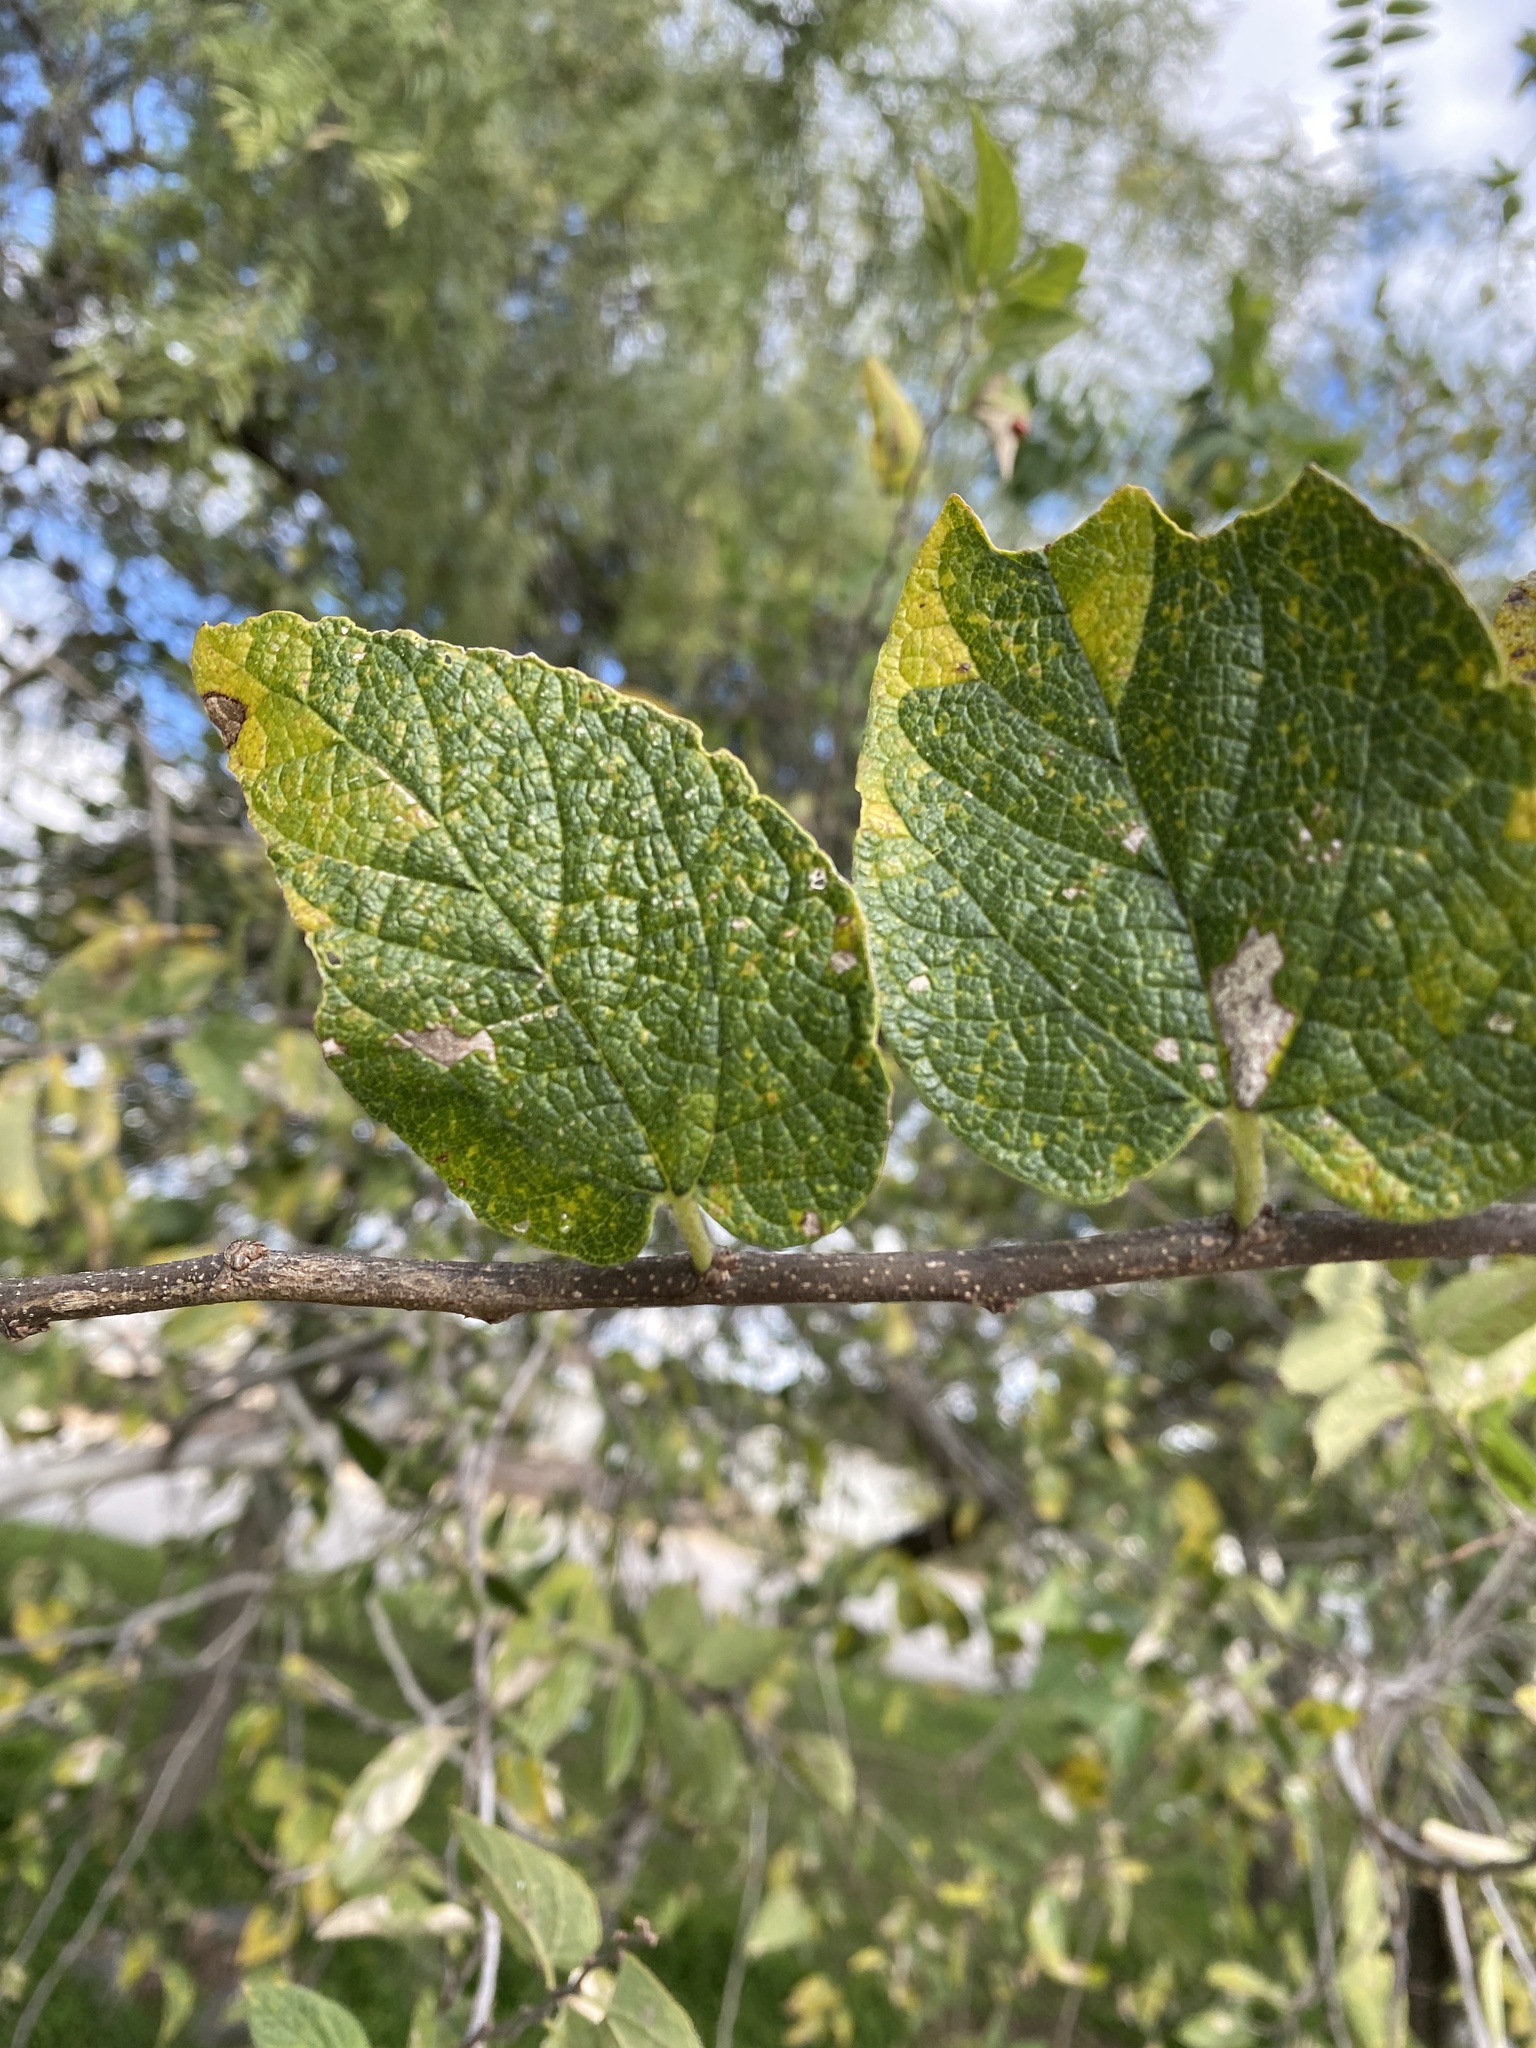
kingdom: Plantae
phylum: Tracheophyta
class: Magnoliopsida
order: Rosales
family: Cannabaceae
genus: Celtis
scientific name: Celtis reticulata
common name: Netleaf hackberry
